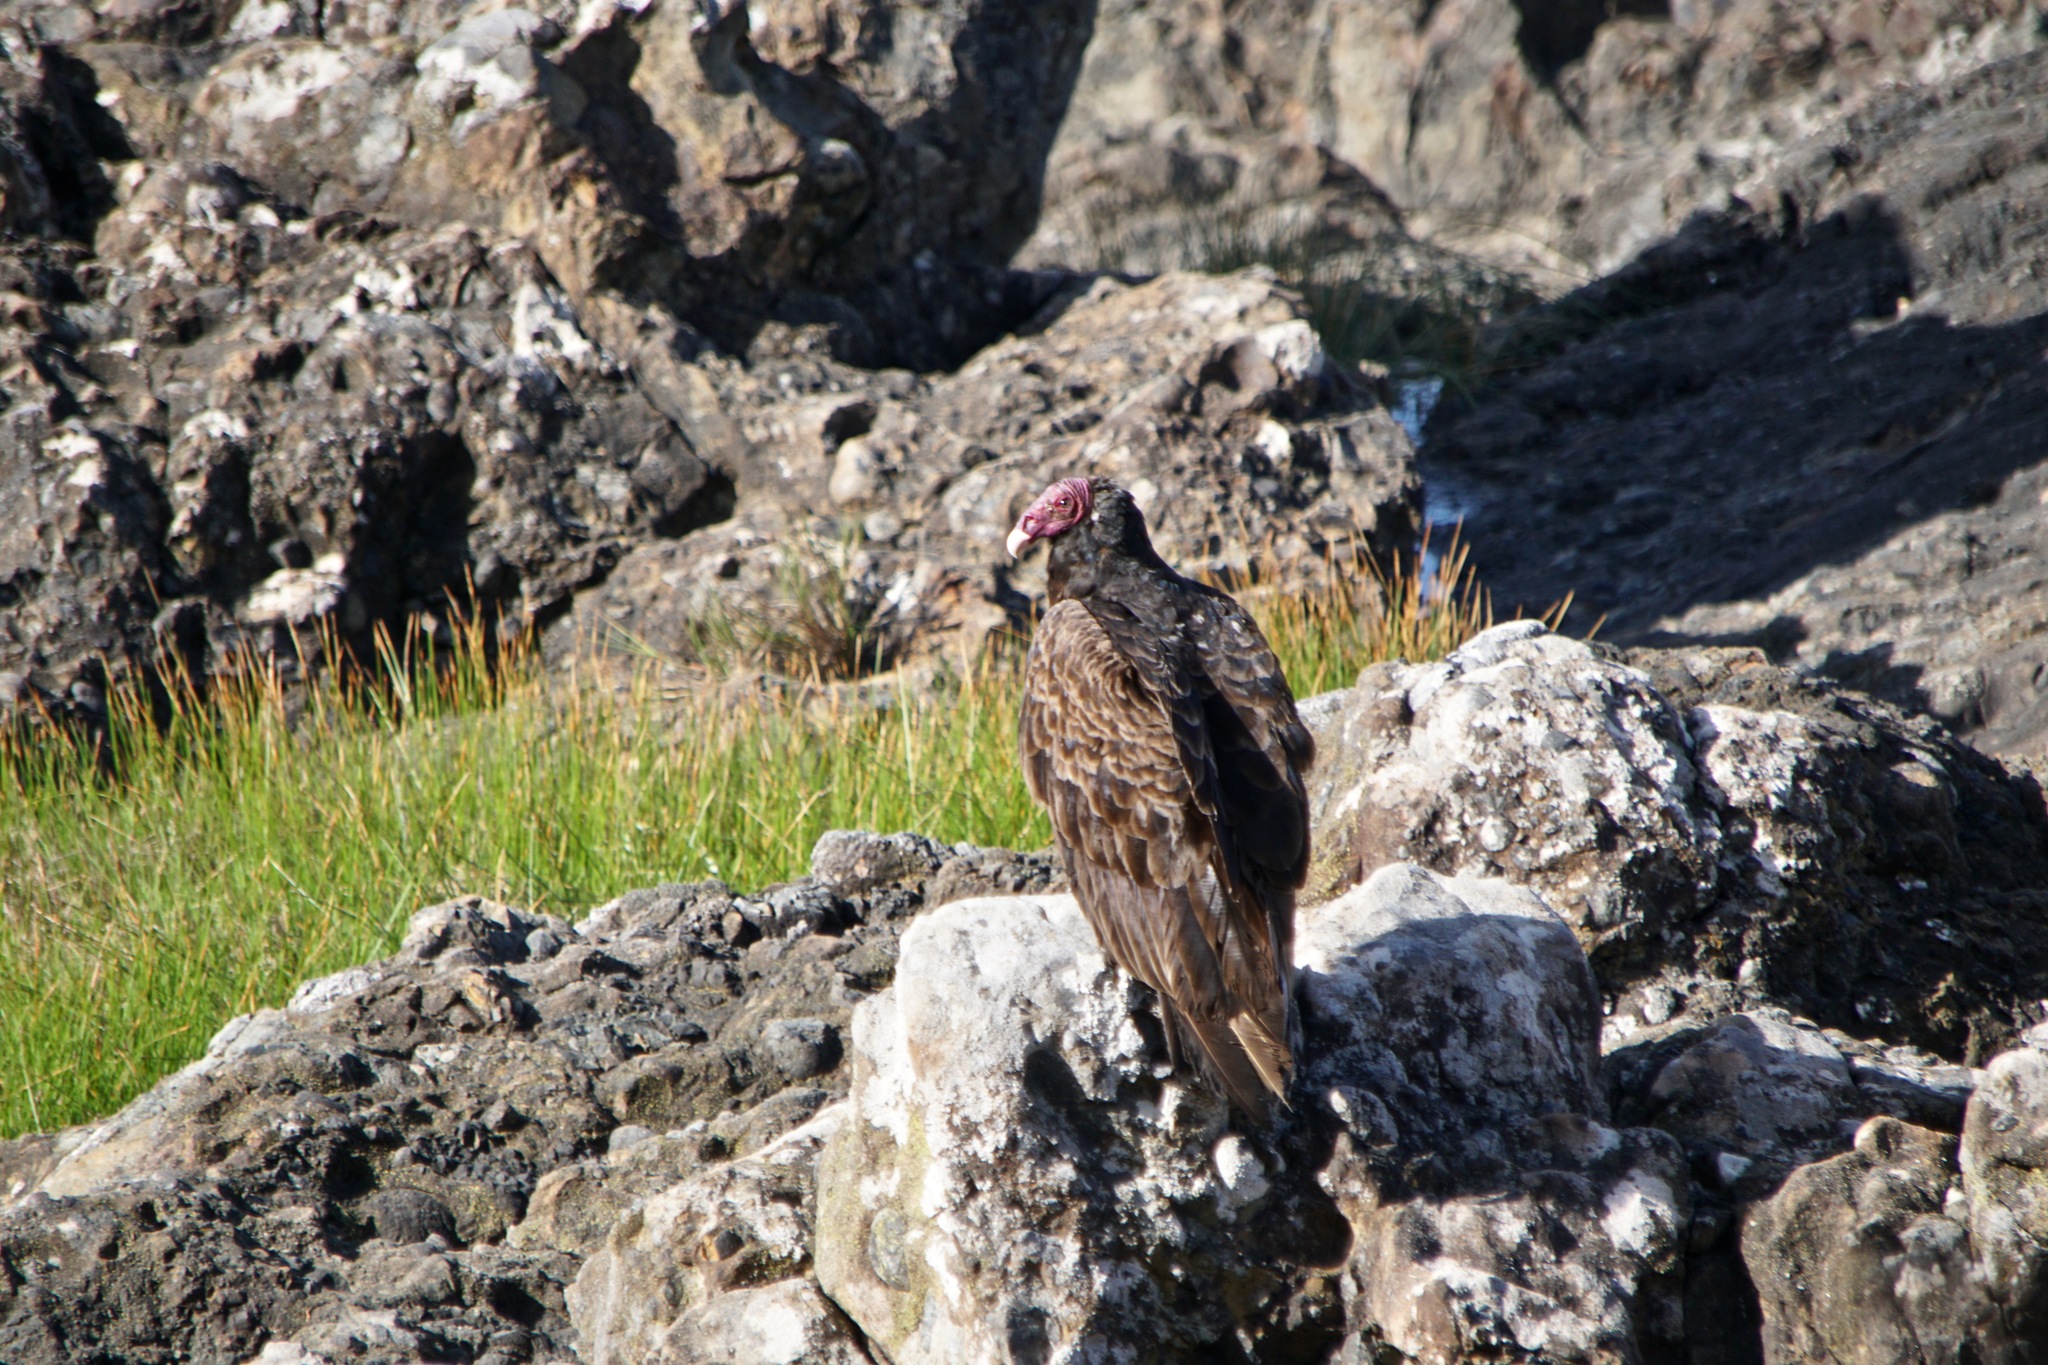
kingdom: Animalia
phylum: Chordata
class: Aves
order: Accipitriformes
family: Cathartidae
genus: Cathartes
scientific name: Cathartes aura
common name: Turkey vulture
